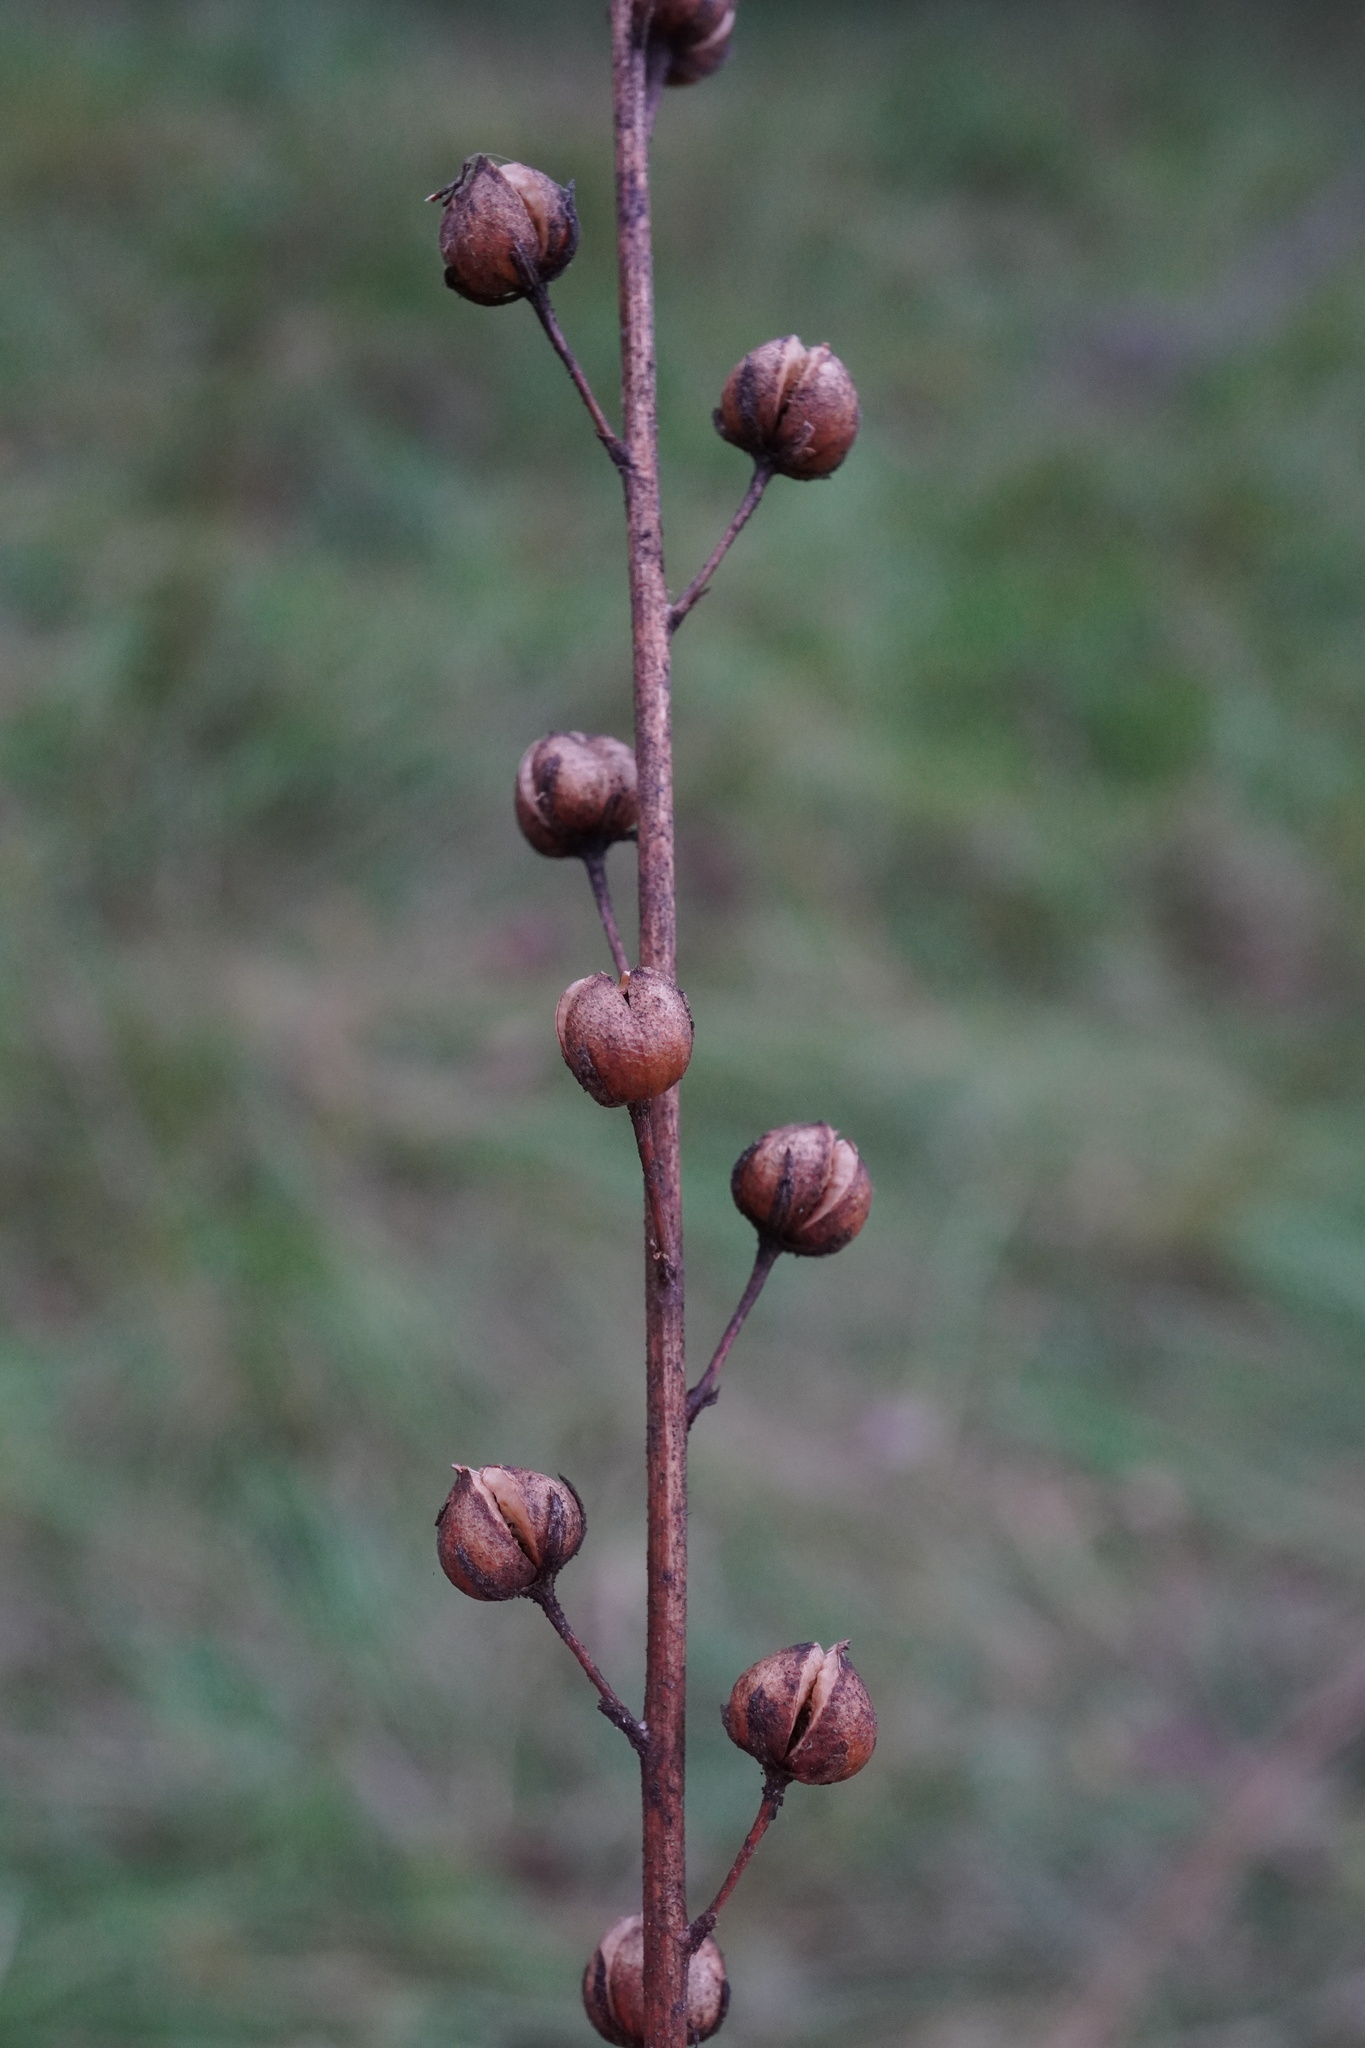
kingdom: Plantae
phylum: Tracheophyta
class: Magnoliopsida
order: Lamiales
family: Scrophulariaceae
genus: Verbascum
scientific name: Verbascum blattaria
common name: Moth mullein
